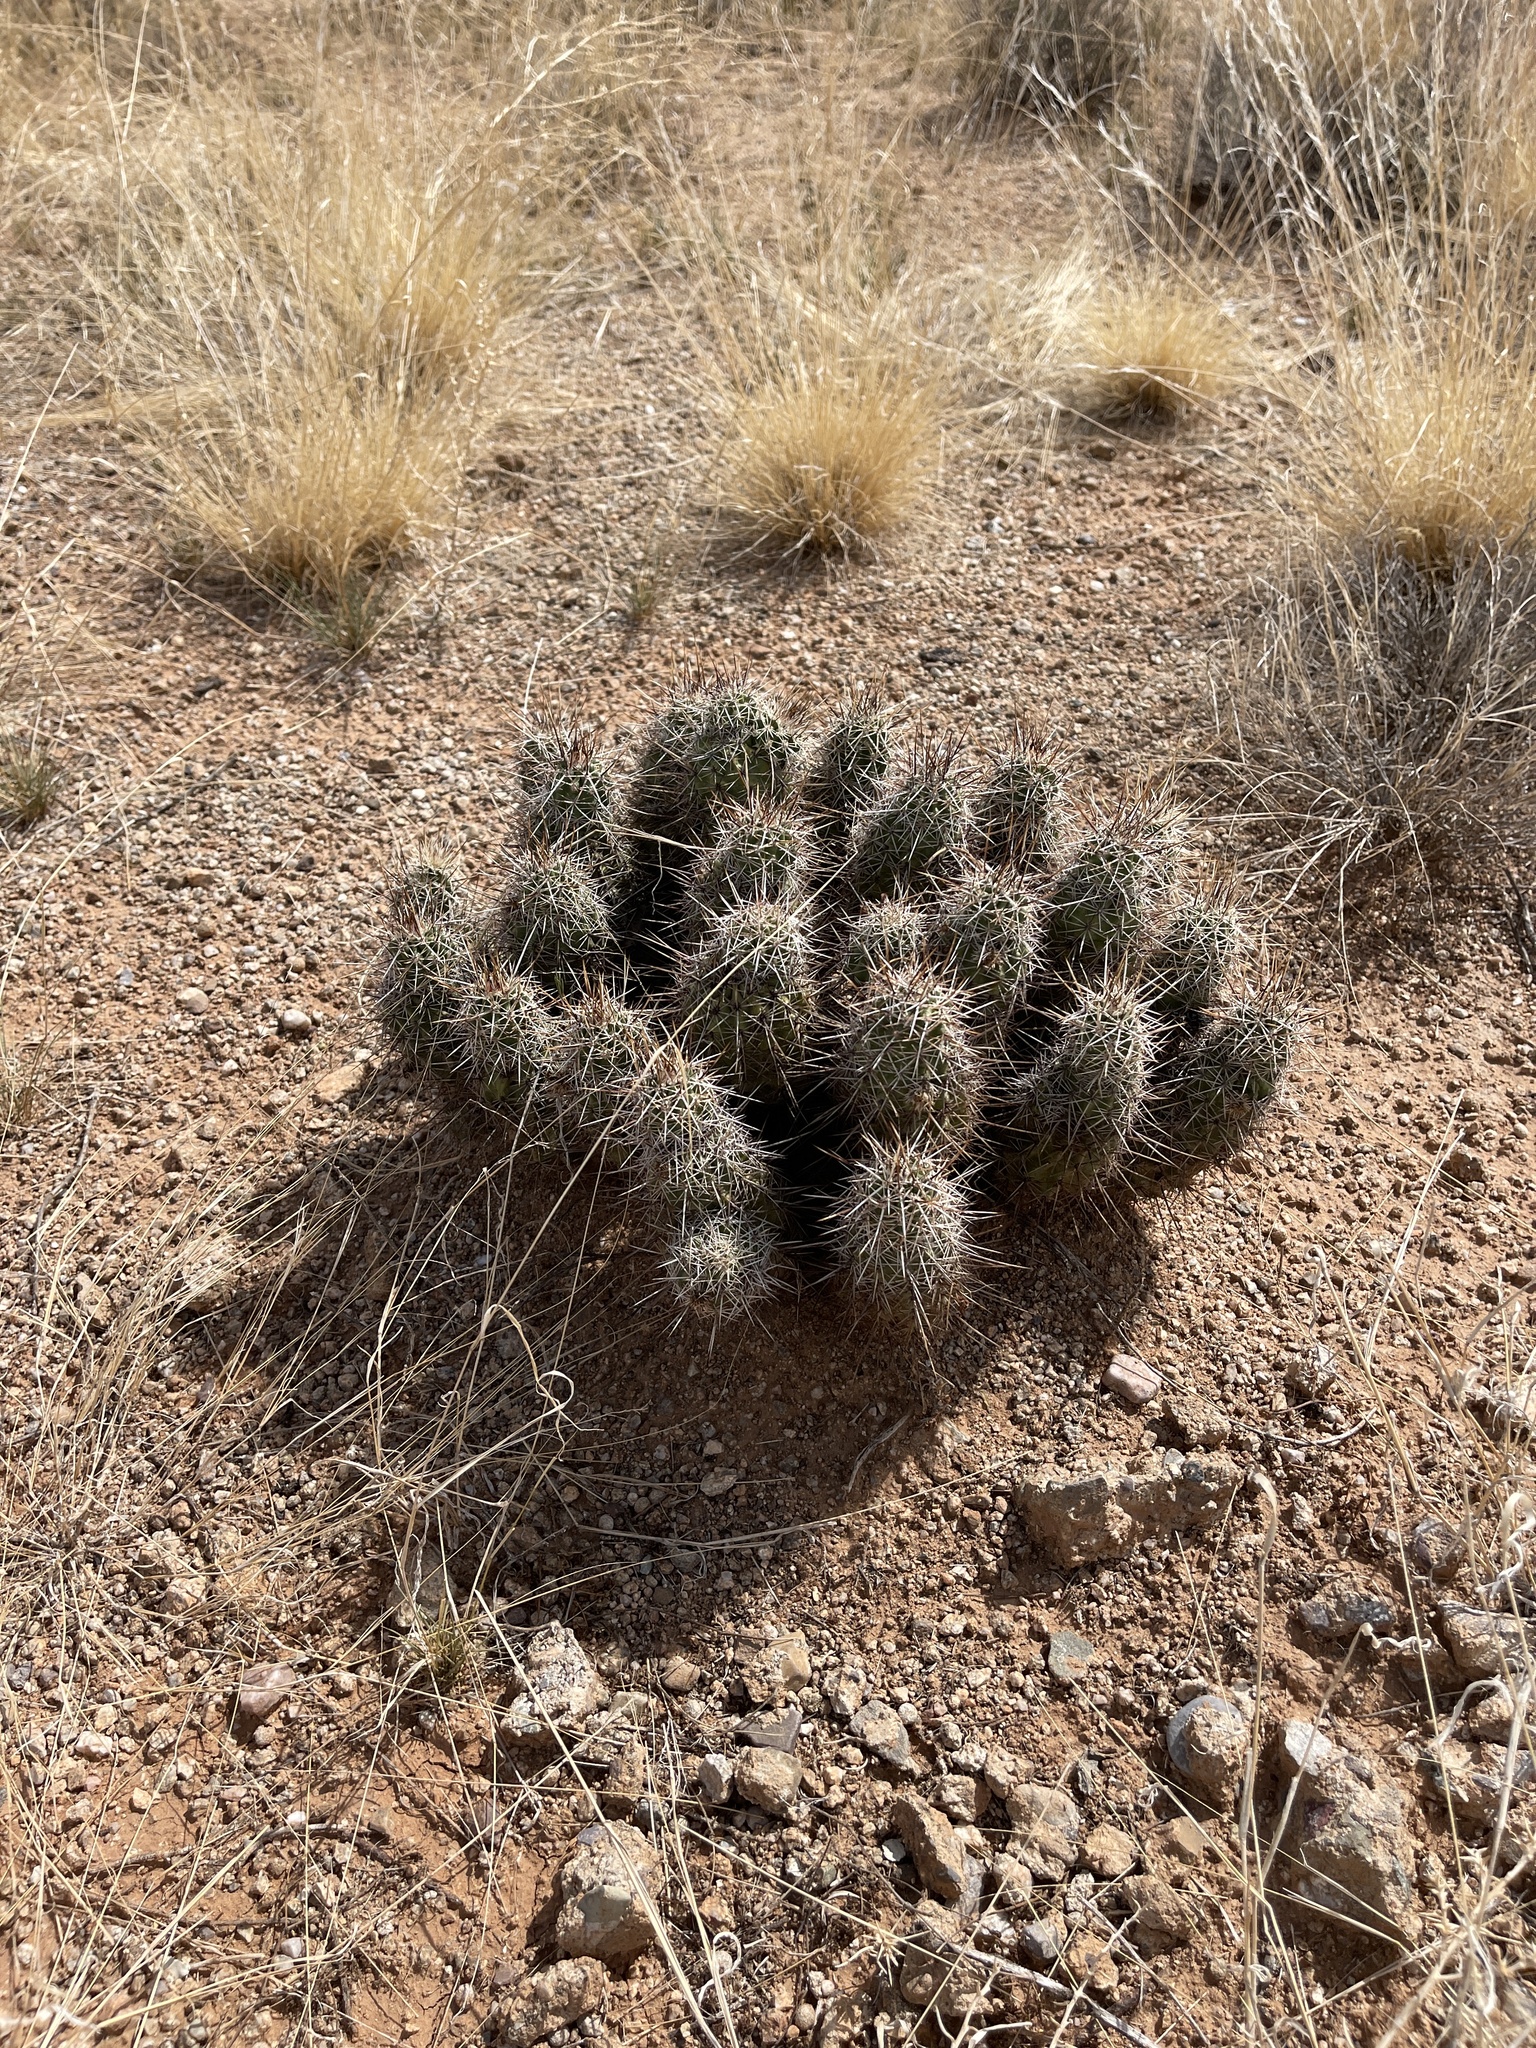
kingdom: Plantae
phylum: Tracheophyta
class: Magnoliopsida
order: Caryophyllales
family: Cactaceae
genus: Echinocereus
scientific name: Echinocereus fasciculatus
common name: Bundle hedgehog
